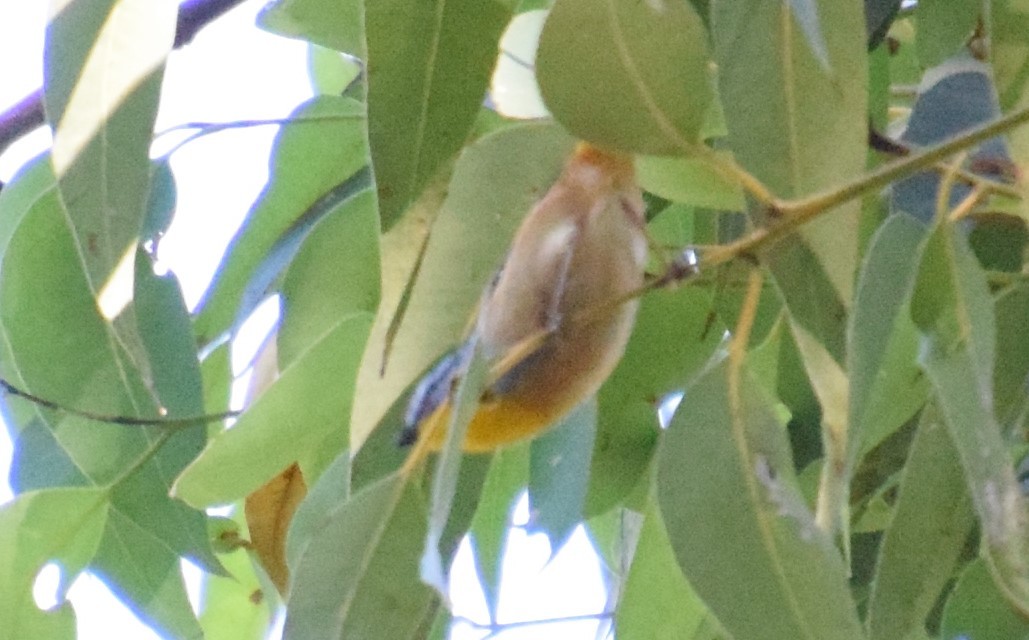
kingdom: Animalia
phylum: Chordata
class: Aves
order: Passeriformes
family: Pardalotidae
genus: Pardalotus
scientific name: Pardalotus punctatus
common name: Spotted pardalote
